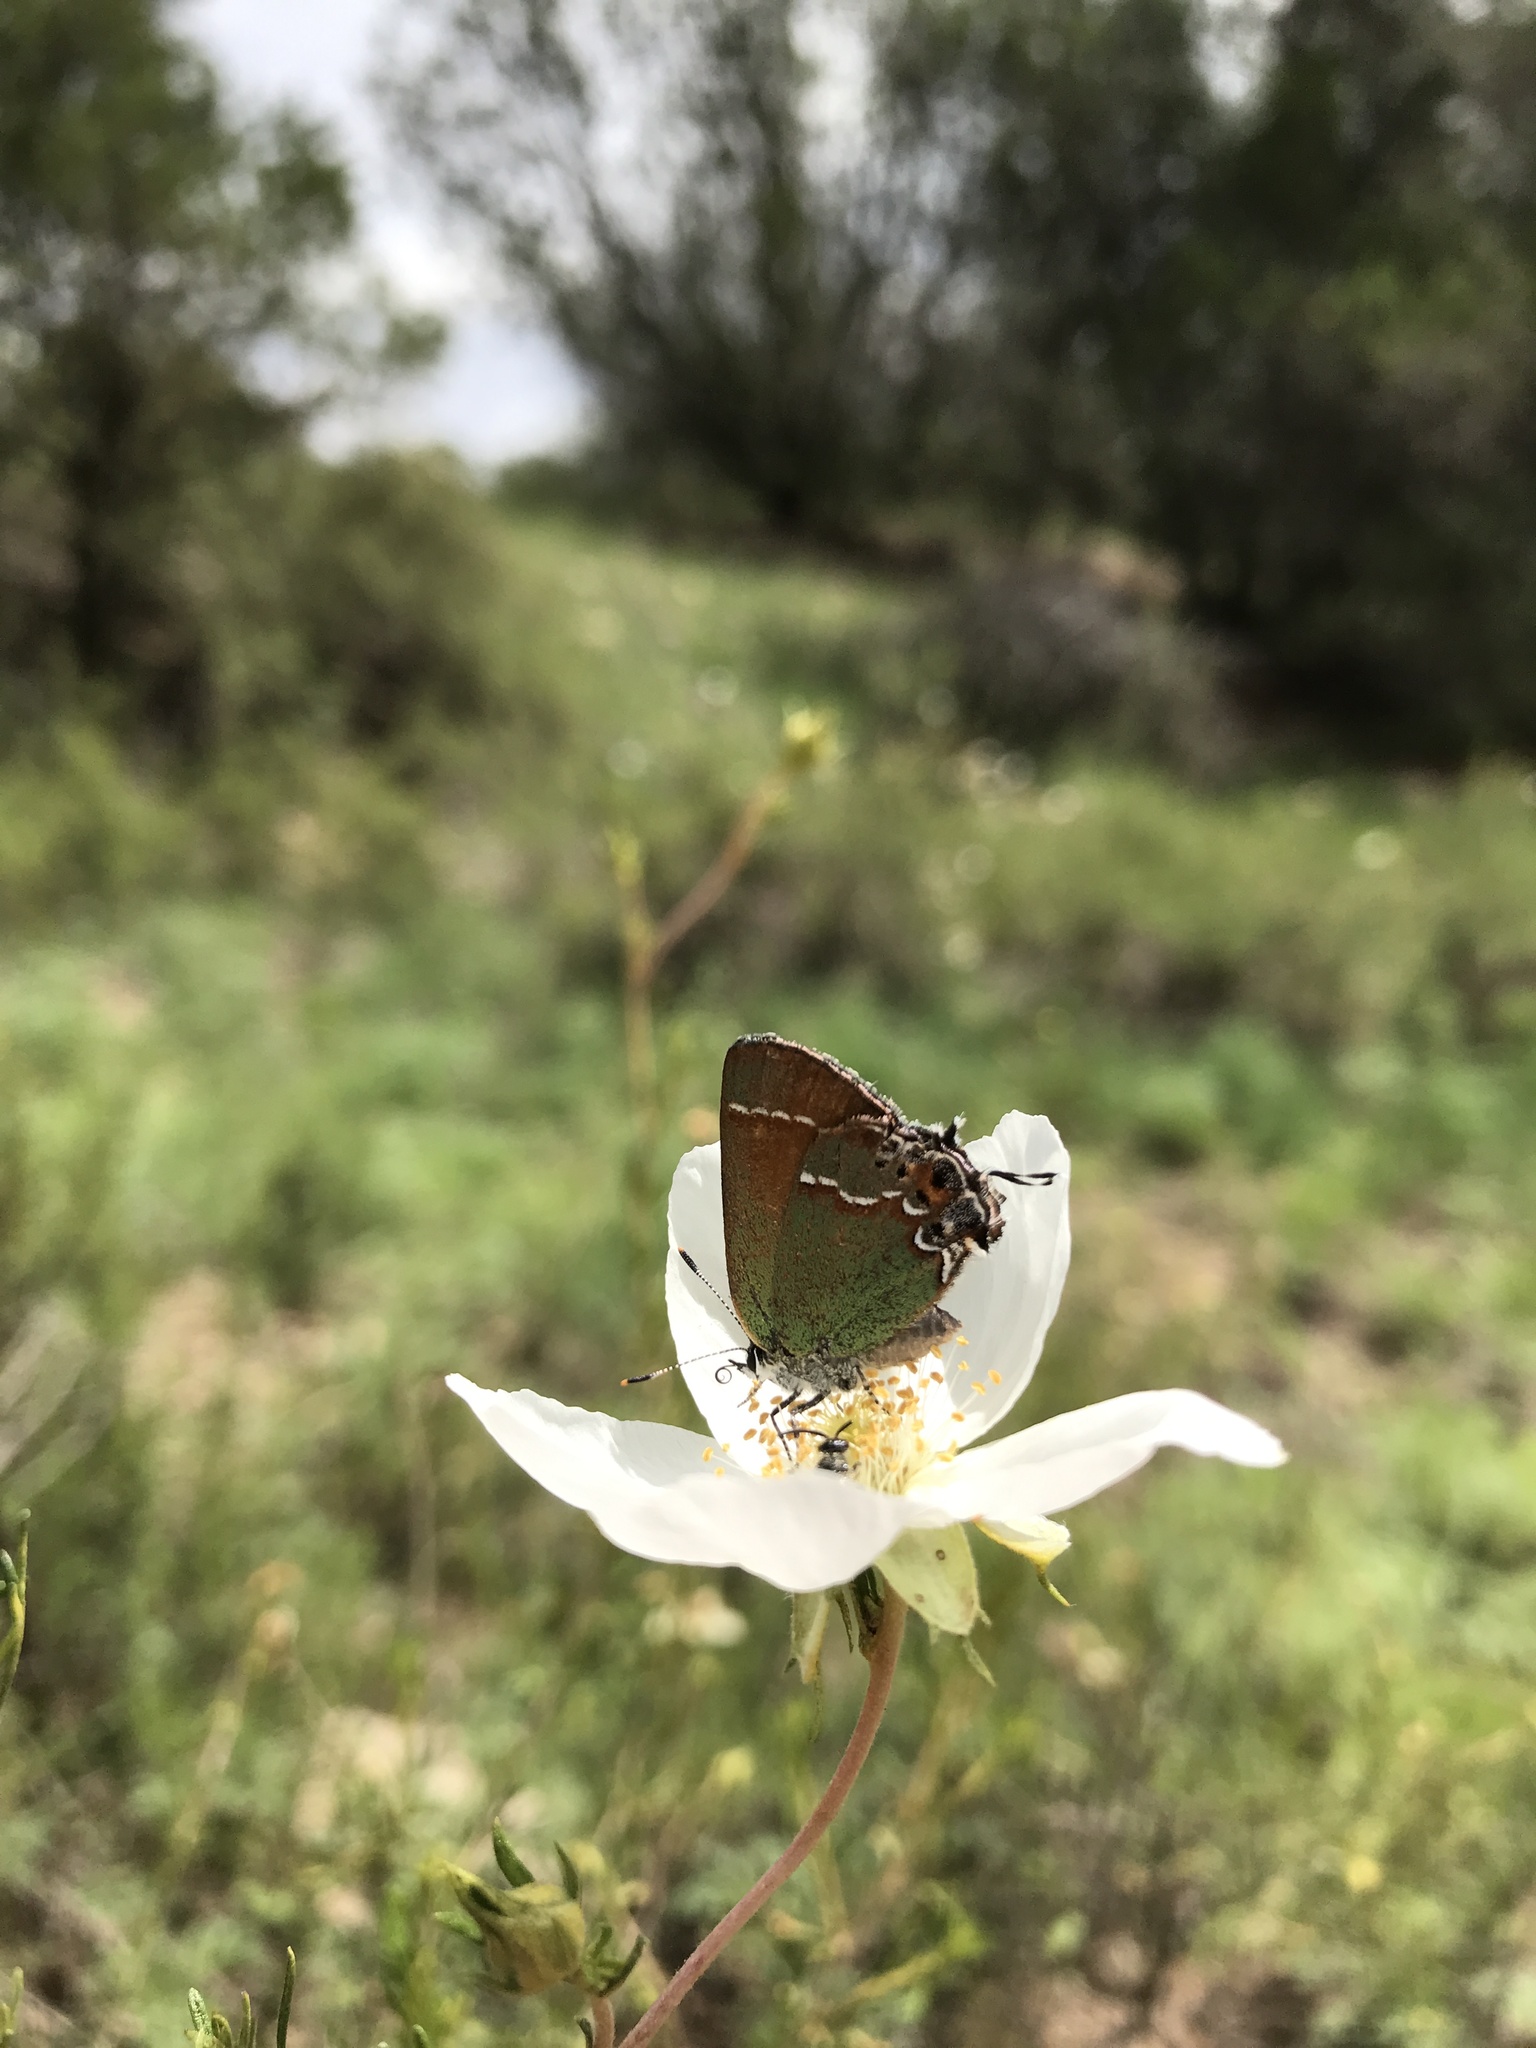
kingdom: Animalia
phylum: Arthropoda
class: Insecta
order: Lepidoptera
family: Lycaenidae
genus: Mitoura
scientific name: Mitoura siva
